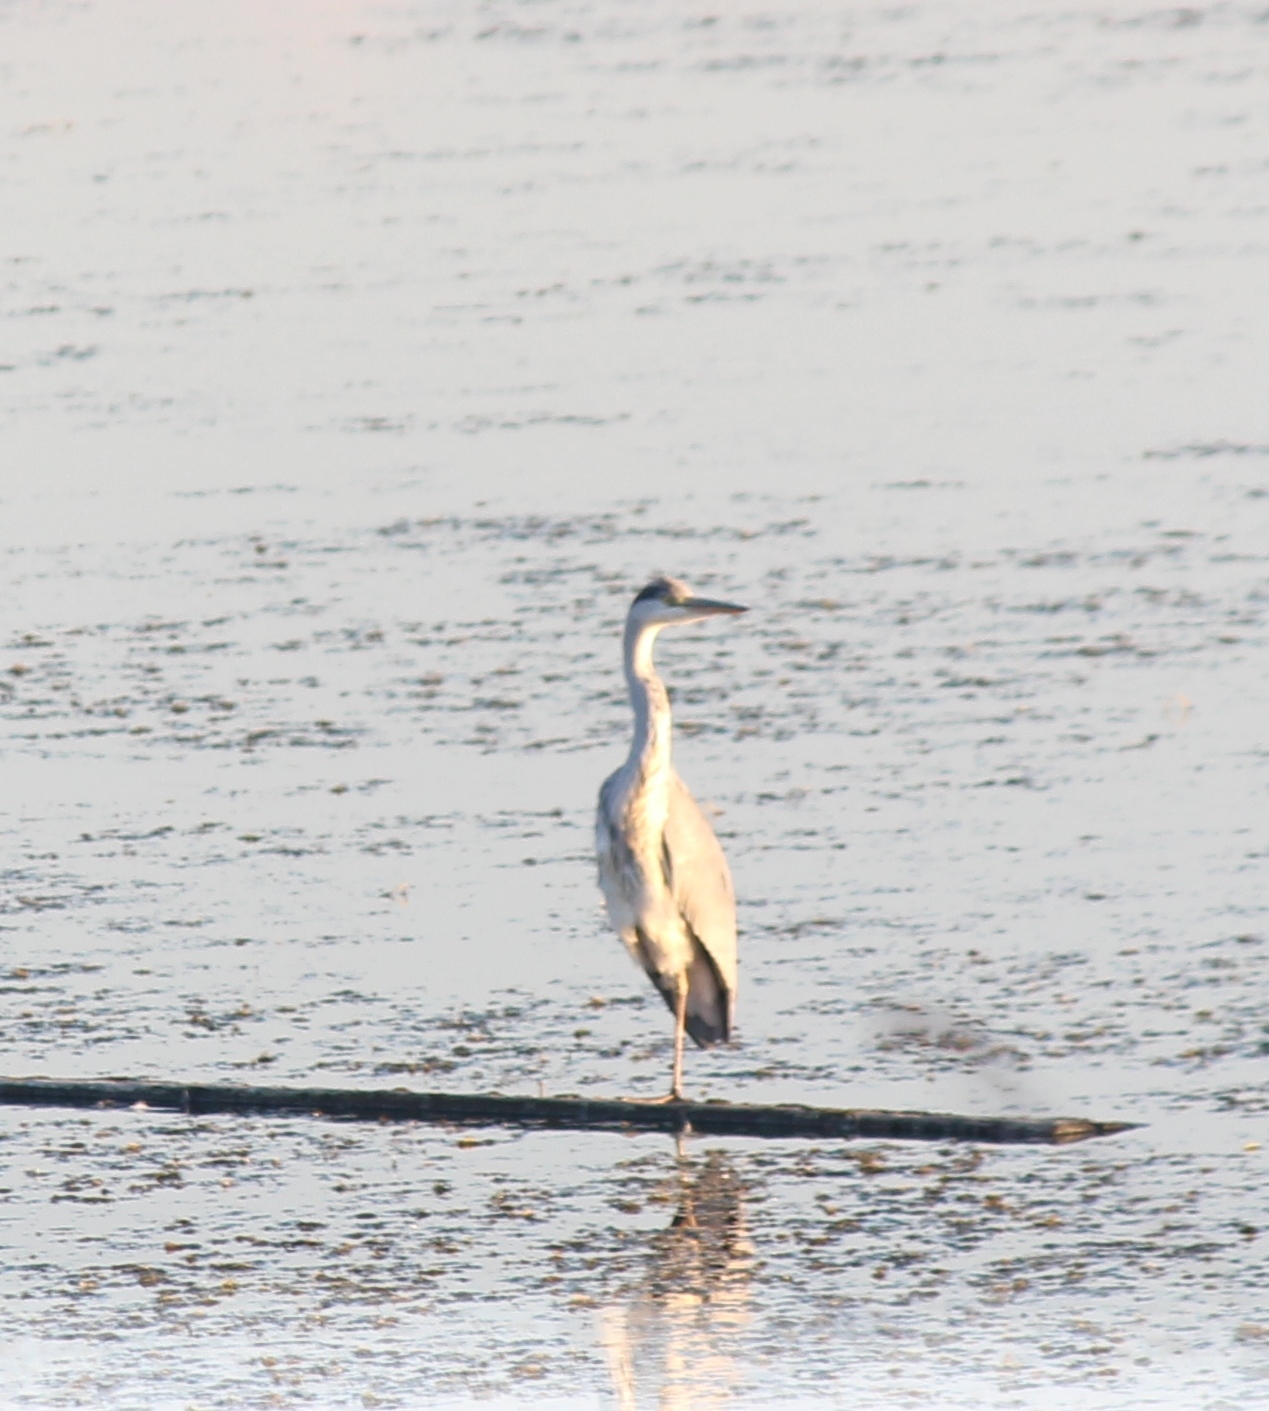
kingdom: Animalia
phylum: Chordata
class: Aves
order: Pelecaniformes
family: Ardeidae
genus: Ardea
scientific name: Ardea cinerea
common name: Grey heron
